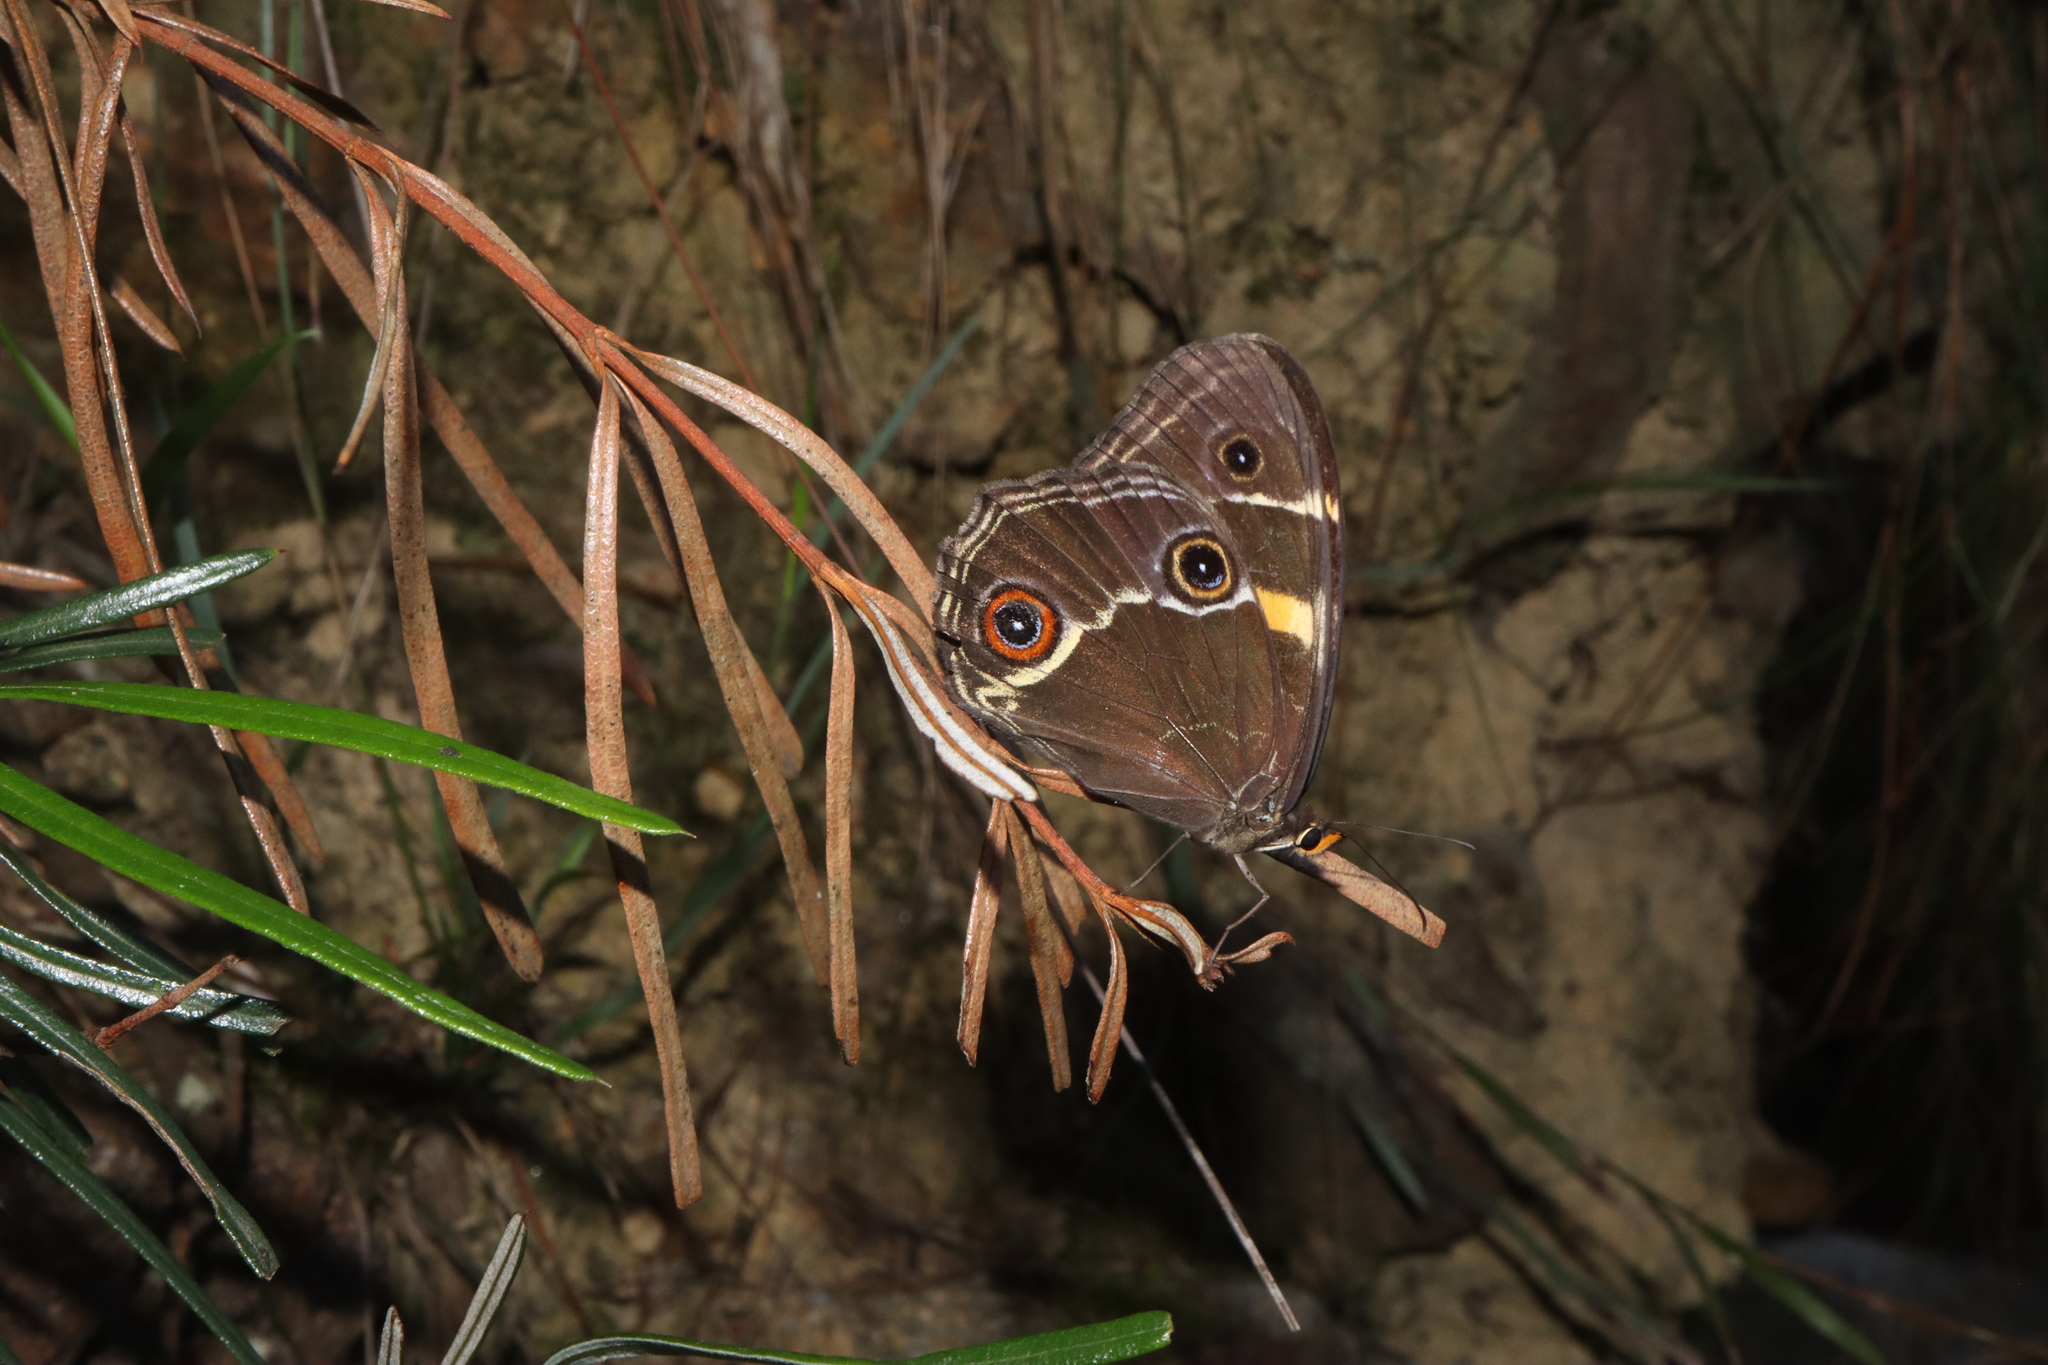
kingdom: Animalia
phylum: Arthropoda
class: Insecta
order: Lepidoptera
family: Nymphalidae
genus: Tisiphone
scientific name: Tisiphone abeona
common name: Swordgrass brown
